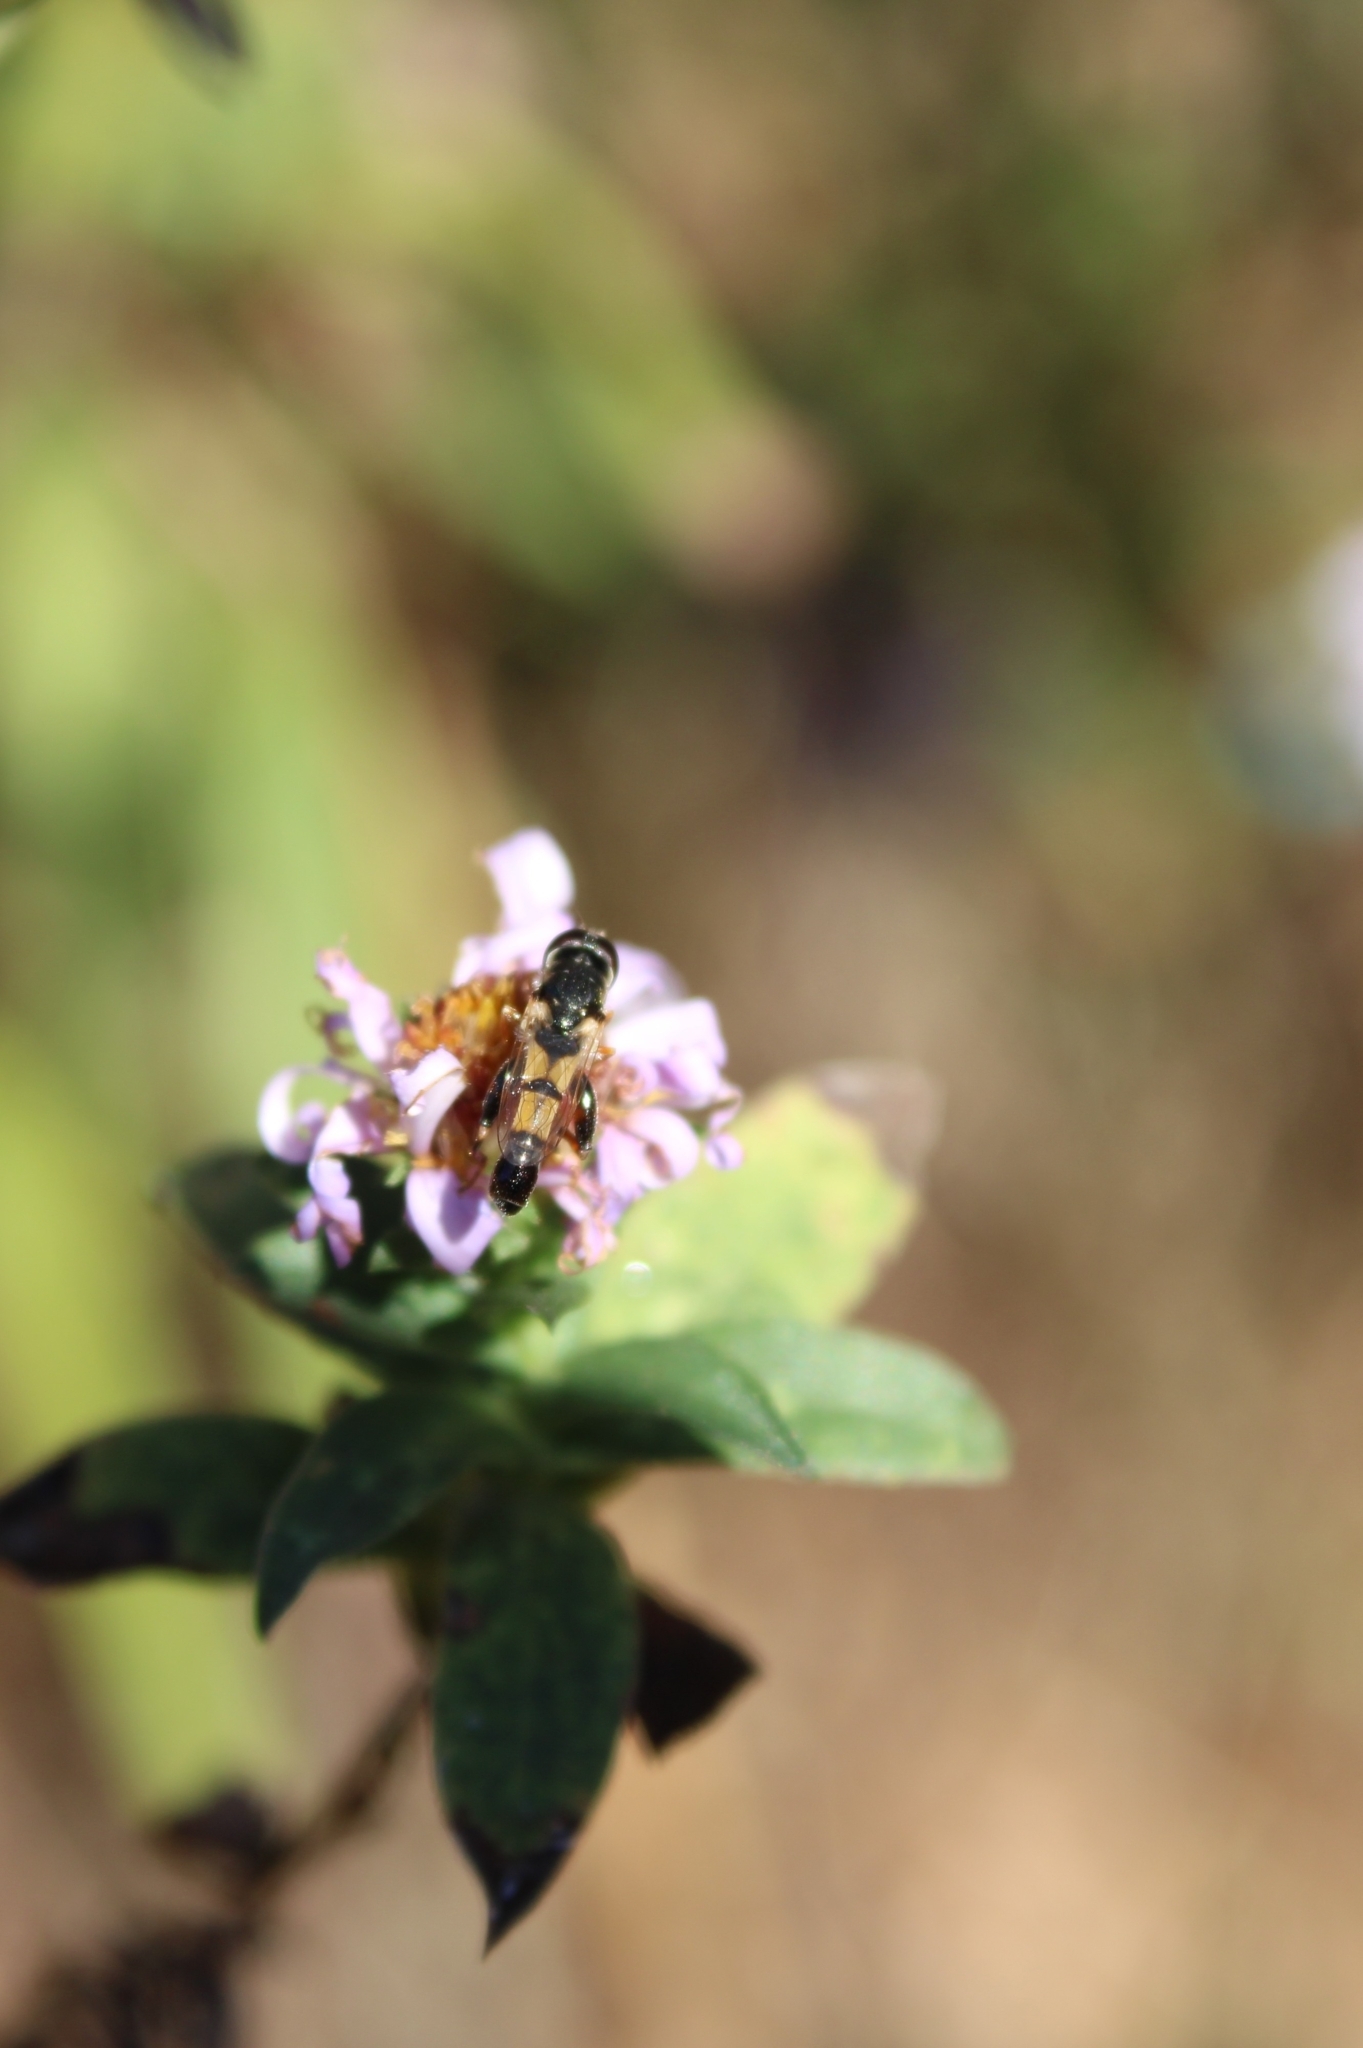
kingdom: Animalia
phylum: Arthropoda
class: Insecta
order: Diptera
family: Syrphidae
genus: Syritta
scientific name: Syritta flaviventris
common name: Syrphid fly
